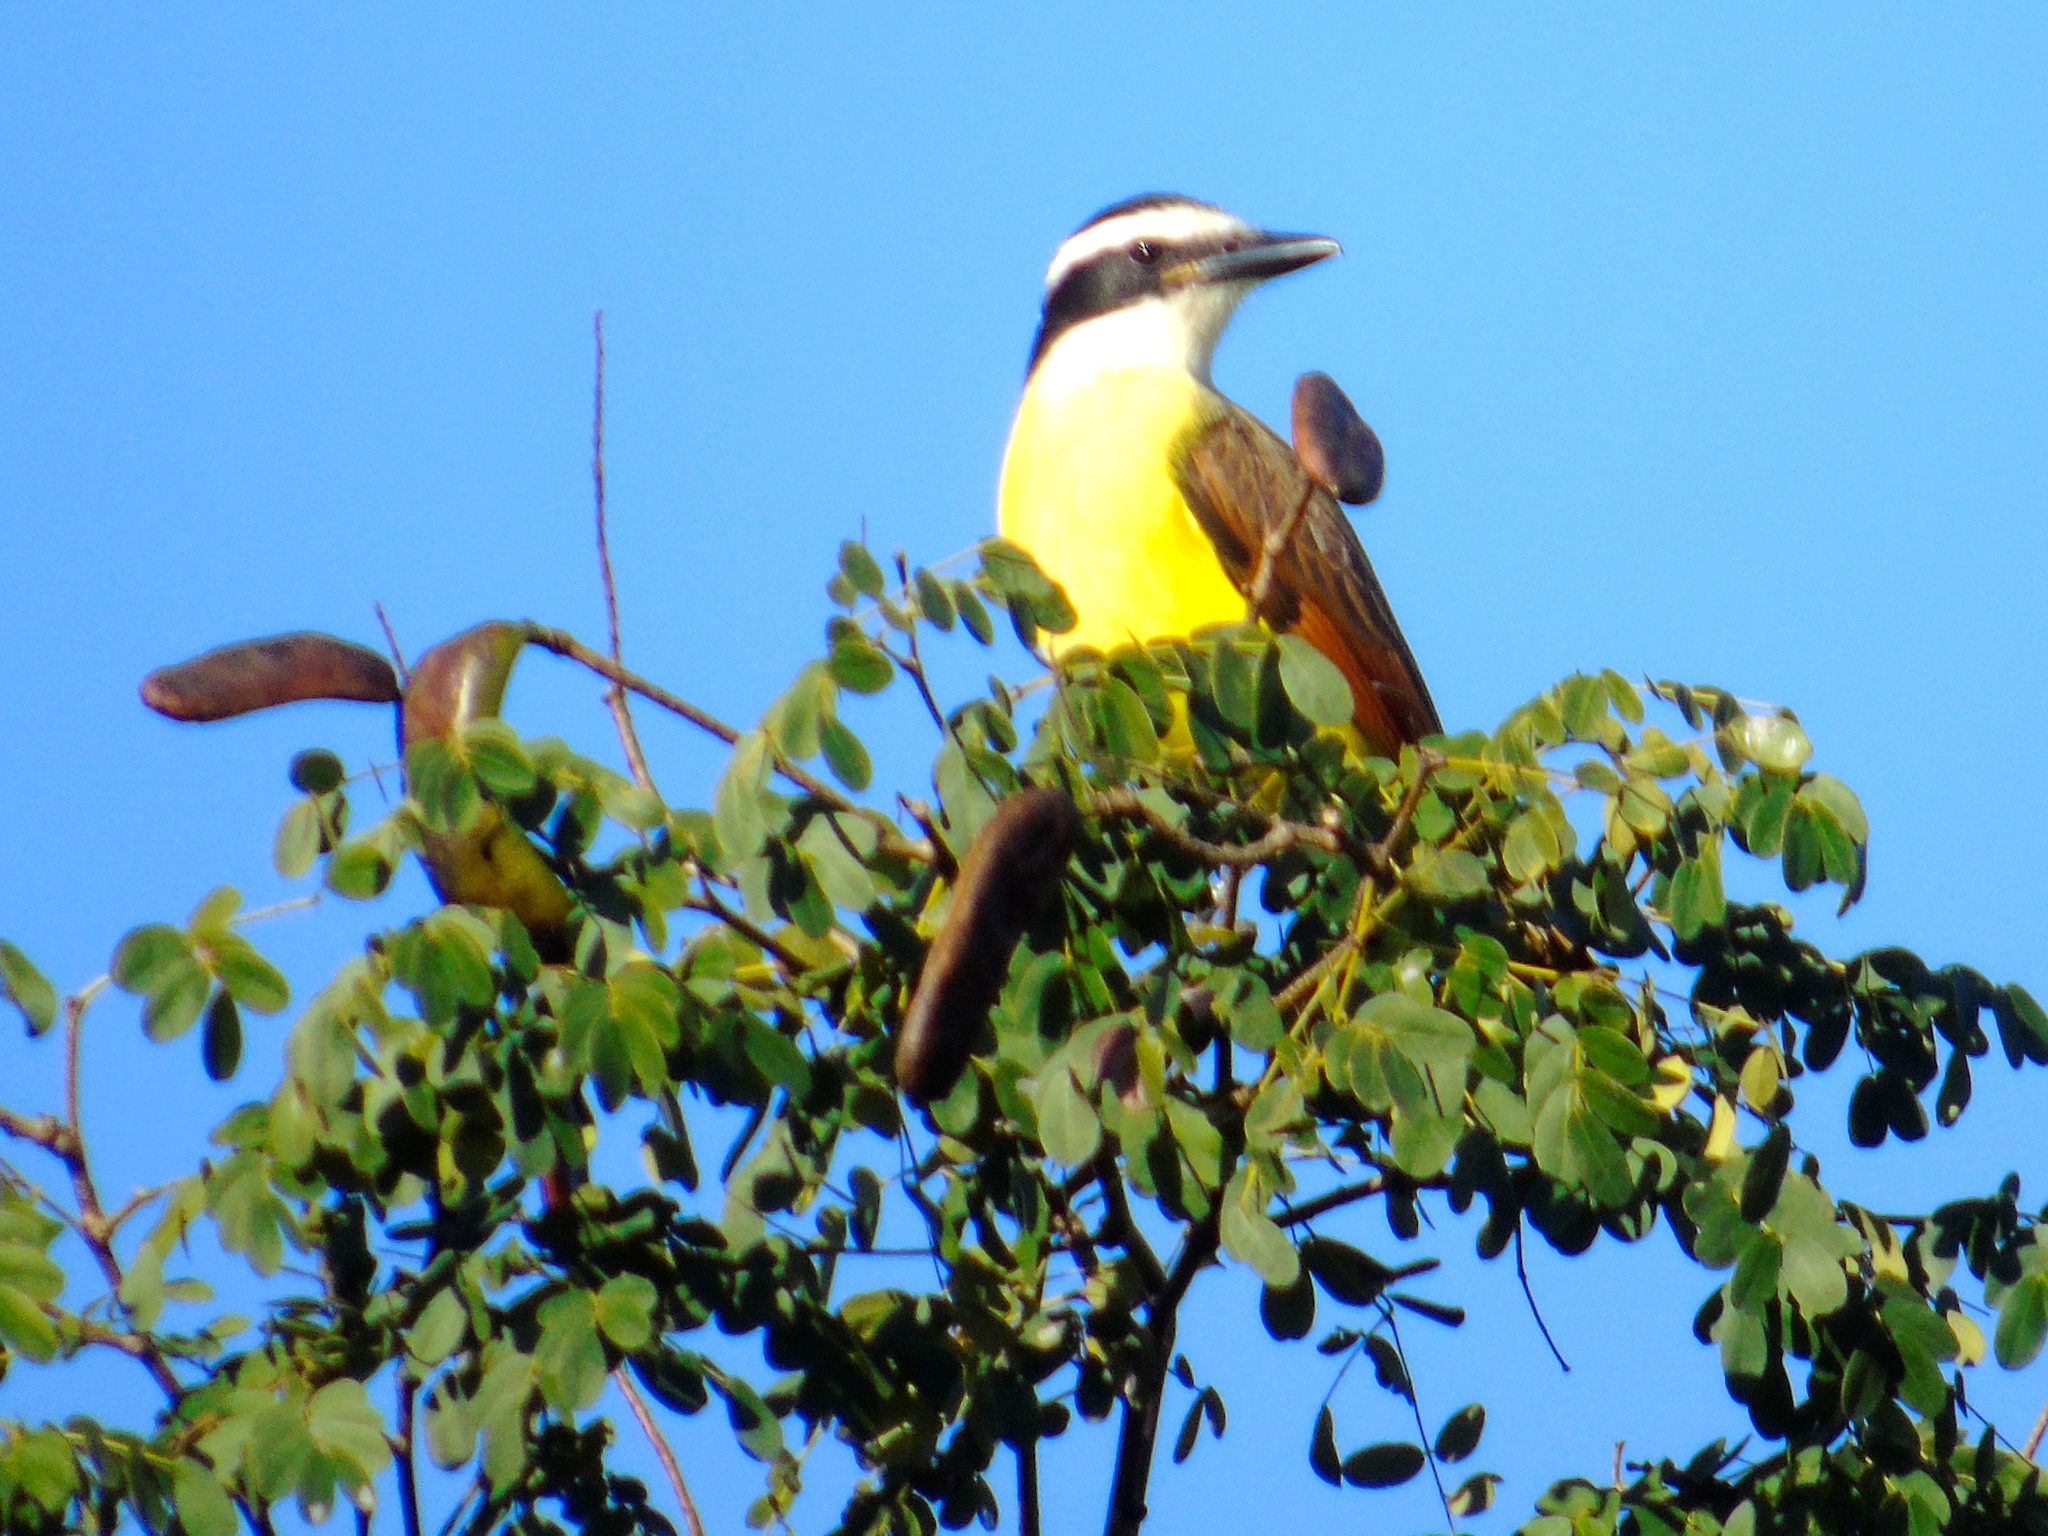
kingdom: Plantae
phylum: Tracheophyta
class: Magnoliopsida
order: Fabales
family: Fabaceae
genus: Libidibia
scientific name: Libidibia sclerocarpa
